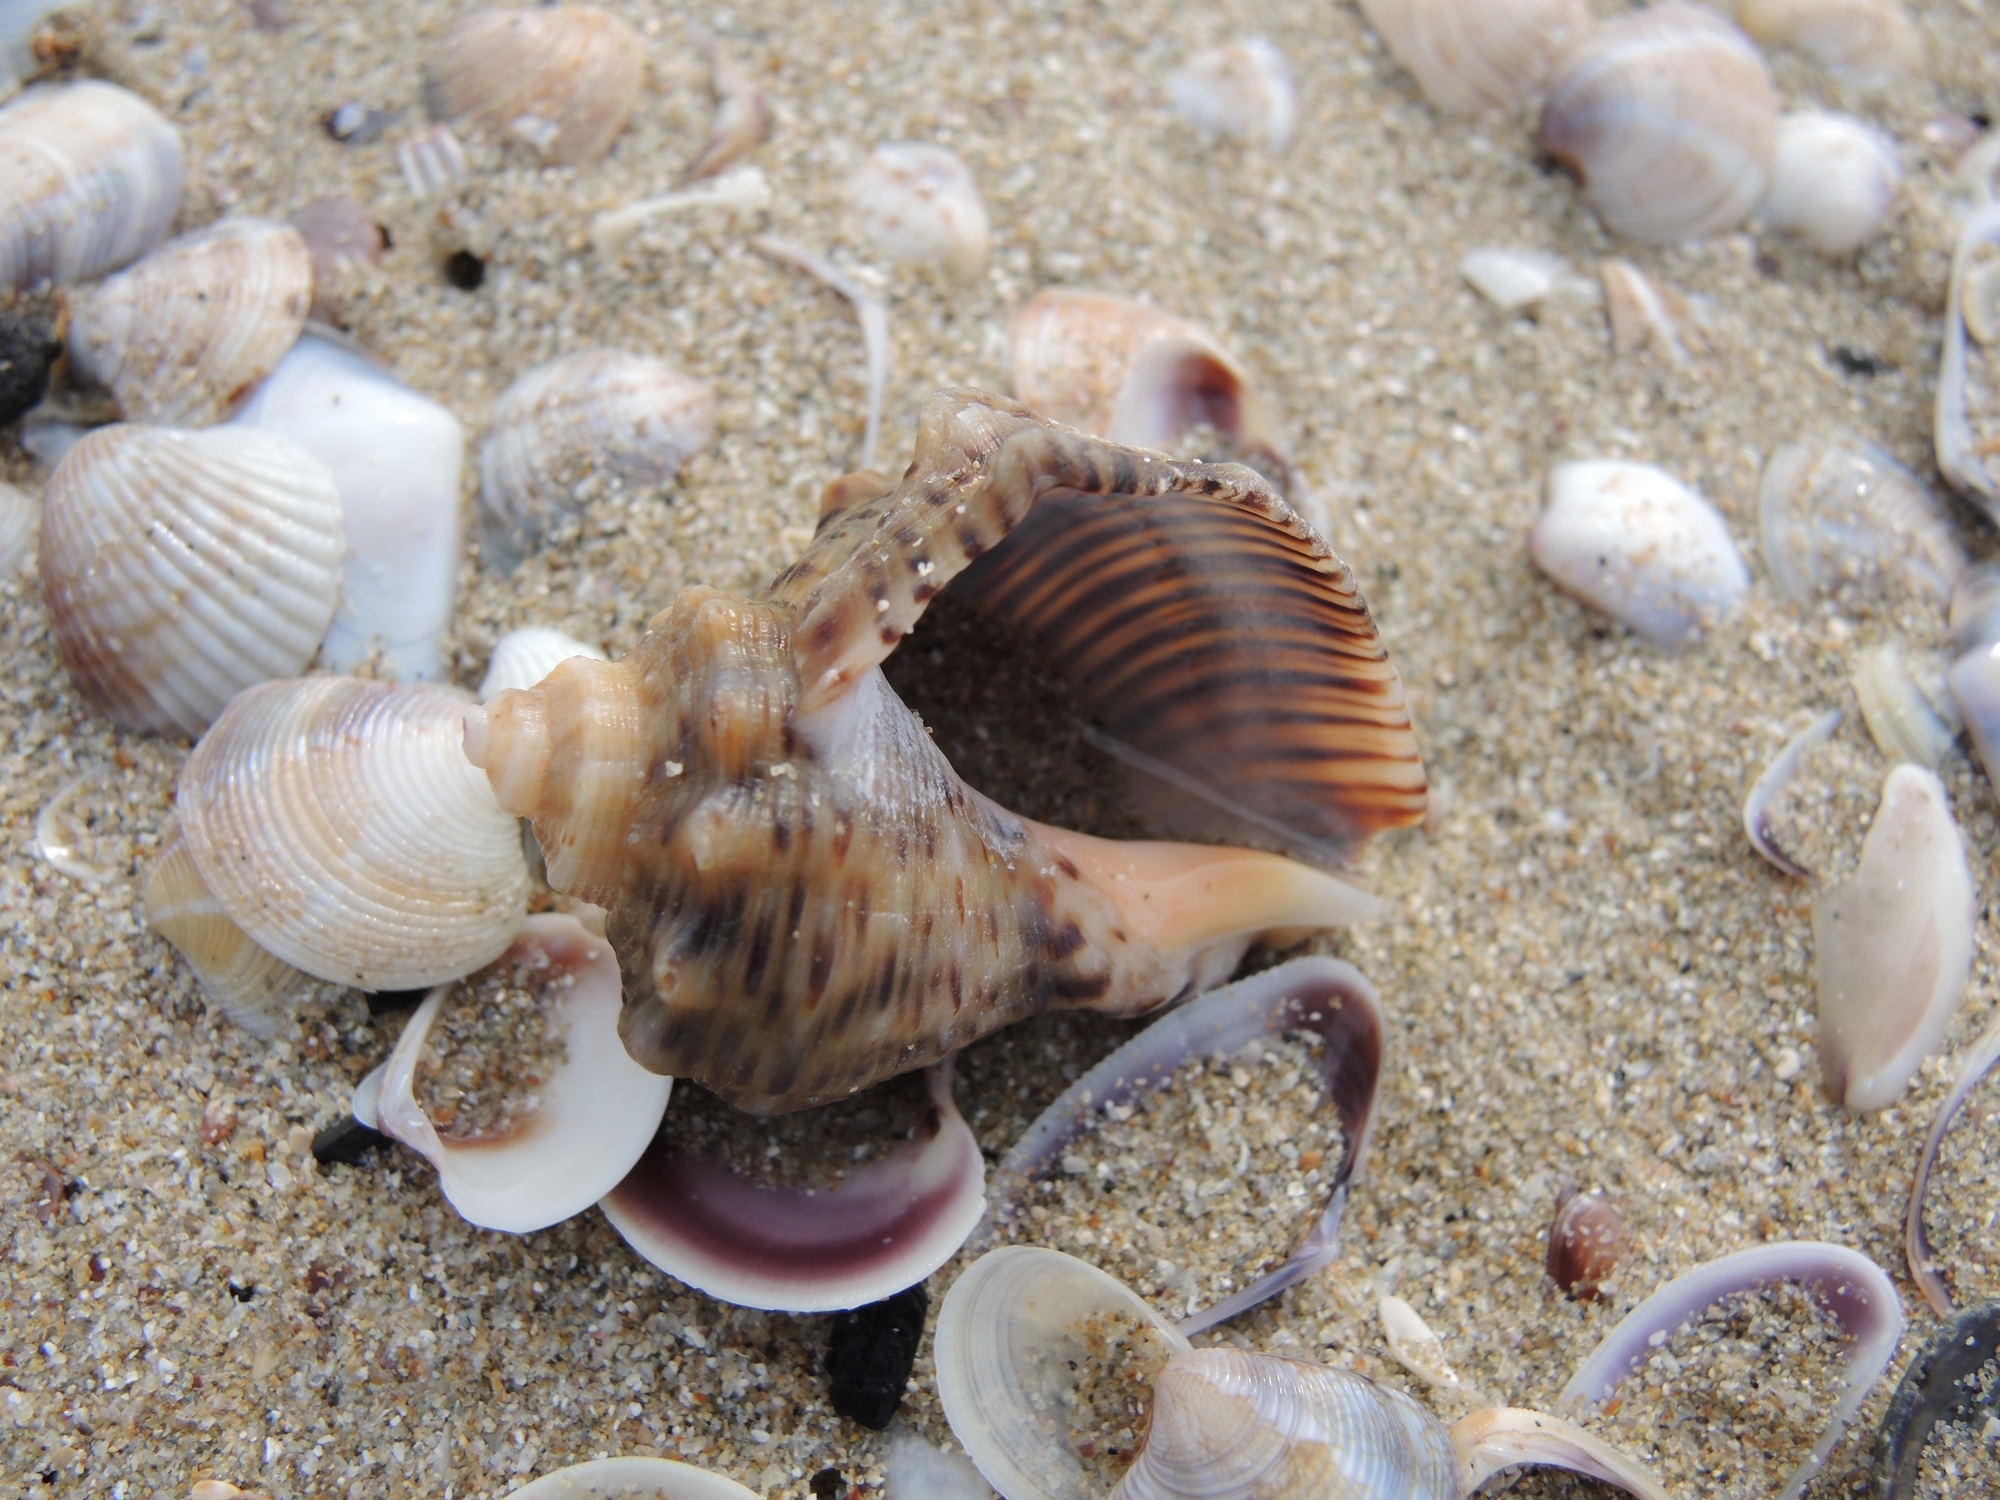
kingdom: Animalia
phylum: Mollusca
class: Gastropoda
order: Neogastropoda
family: Muricidae
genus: Rapana
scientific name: Rapana venosa
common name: Veined rapa whelk
